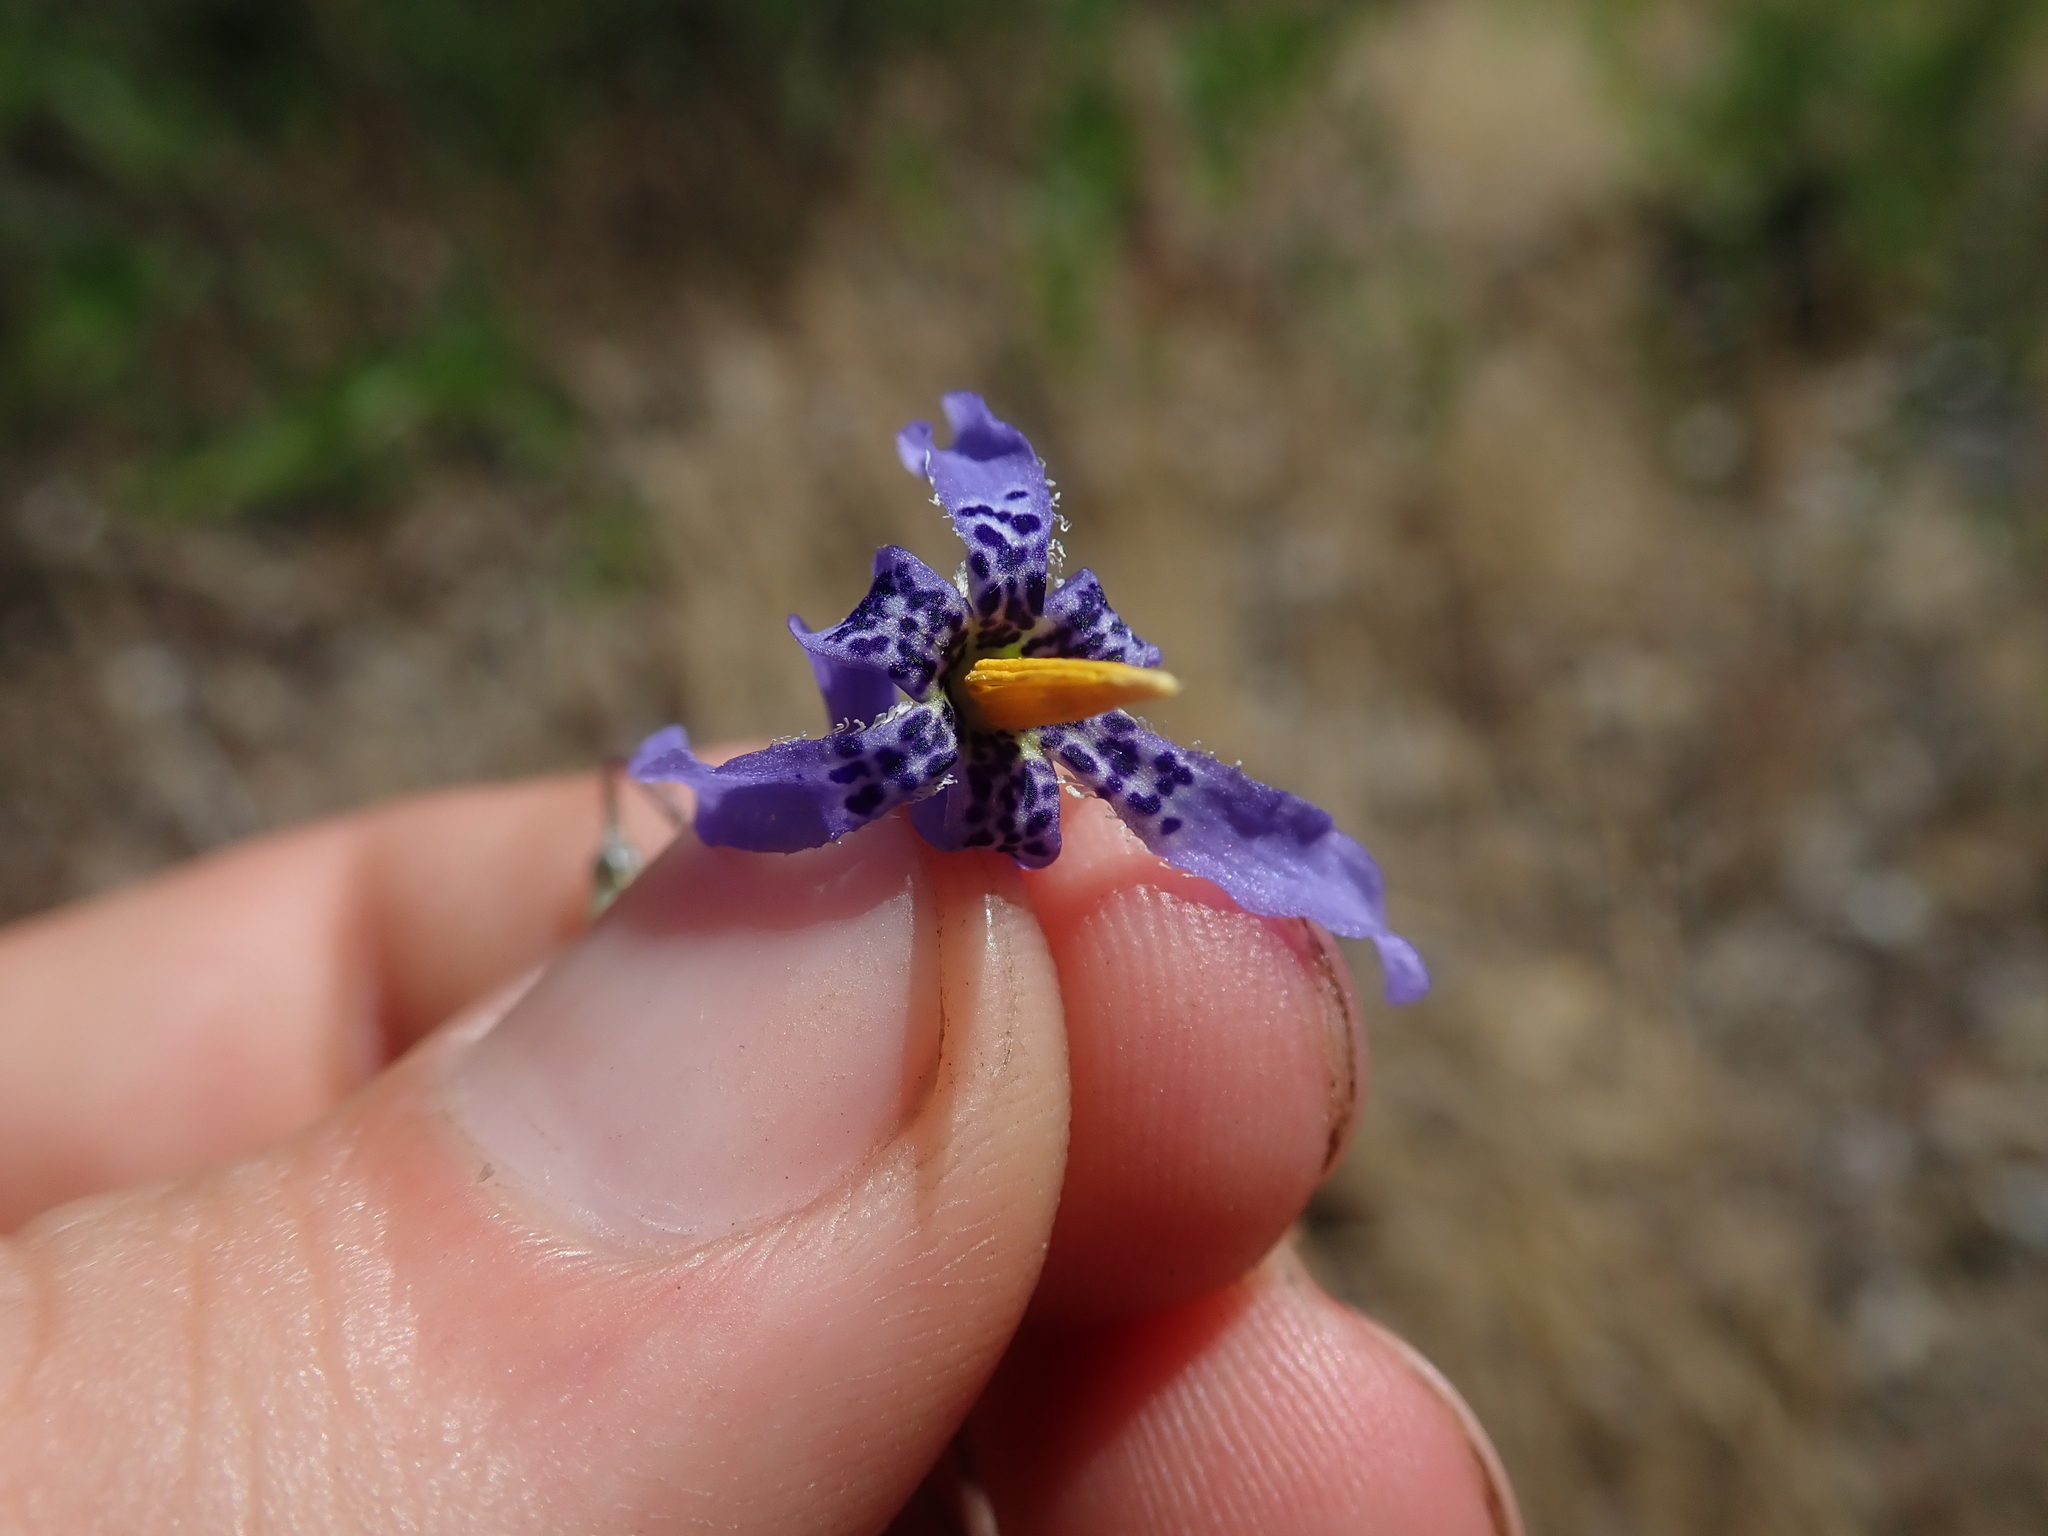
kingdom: Plantae
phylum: Tracheophyta
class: Liliopsida
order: Asparagales
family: Tecophilaeaceae
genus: Conanthera
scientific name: Conanthera bifolia
